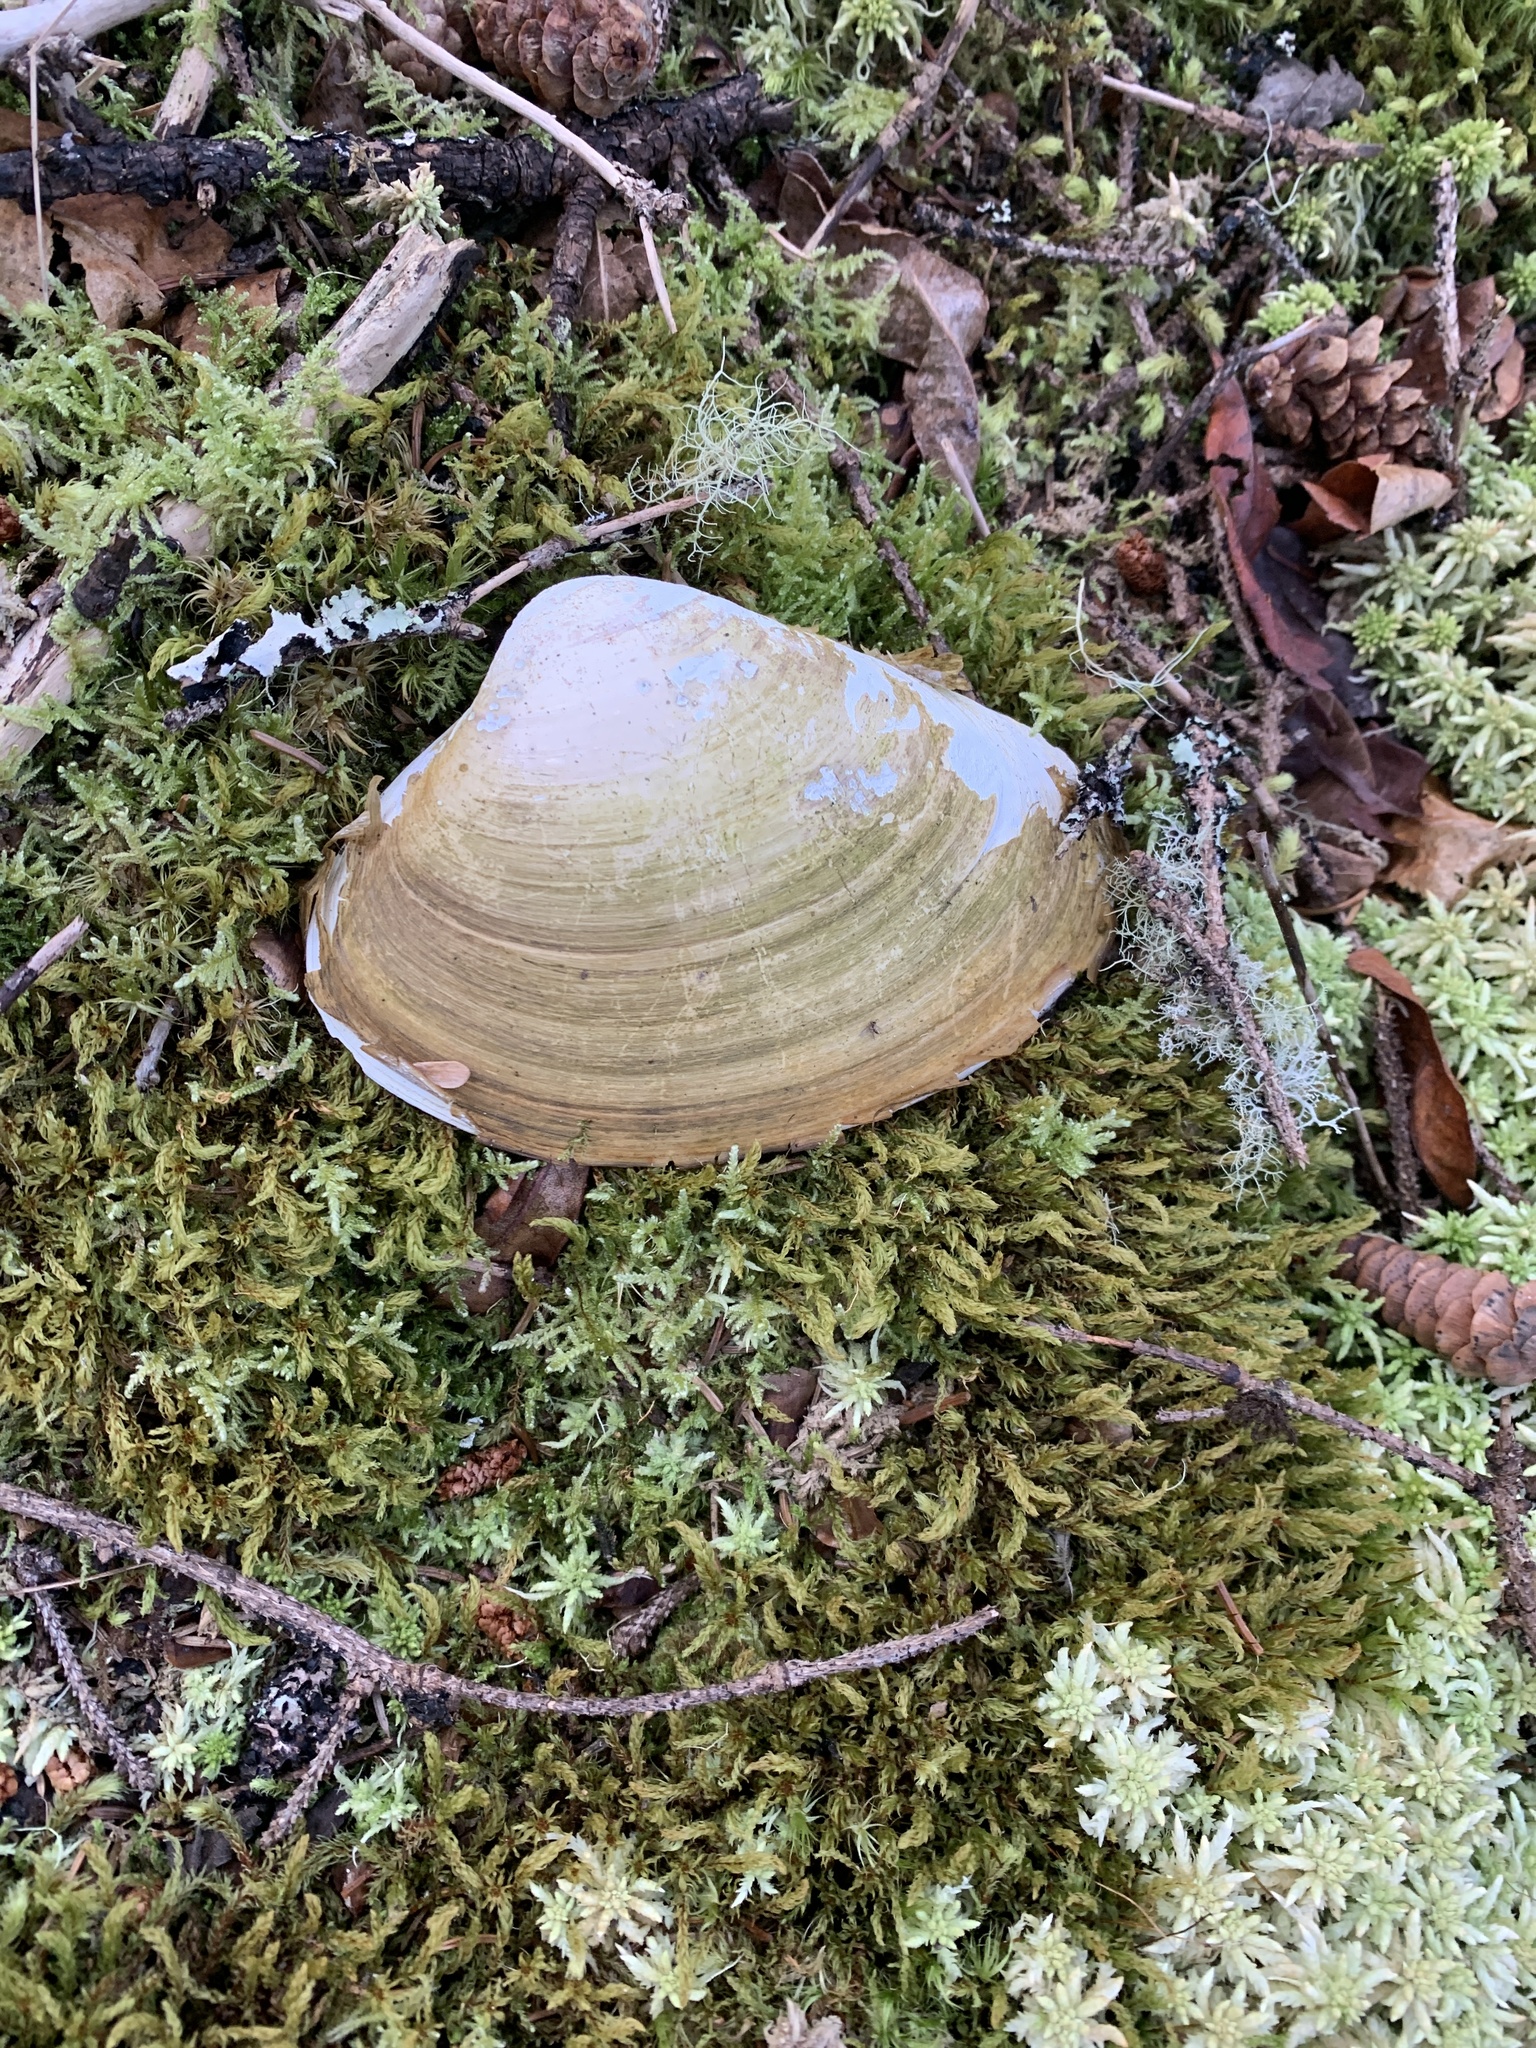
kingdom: Animalia
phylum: Mollusca
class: Bivalvia
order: Venerida
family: Mactridae
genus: Spisula
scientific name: Spisula solidissima
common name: Atlantic surf clam
